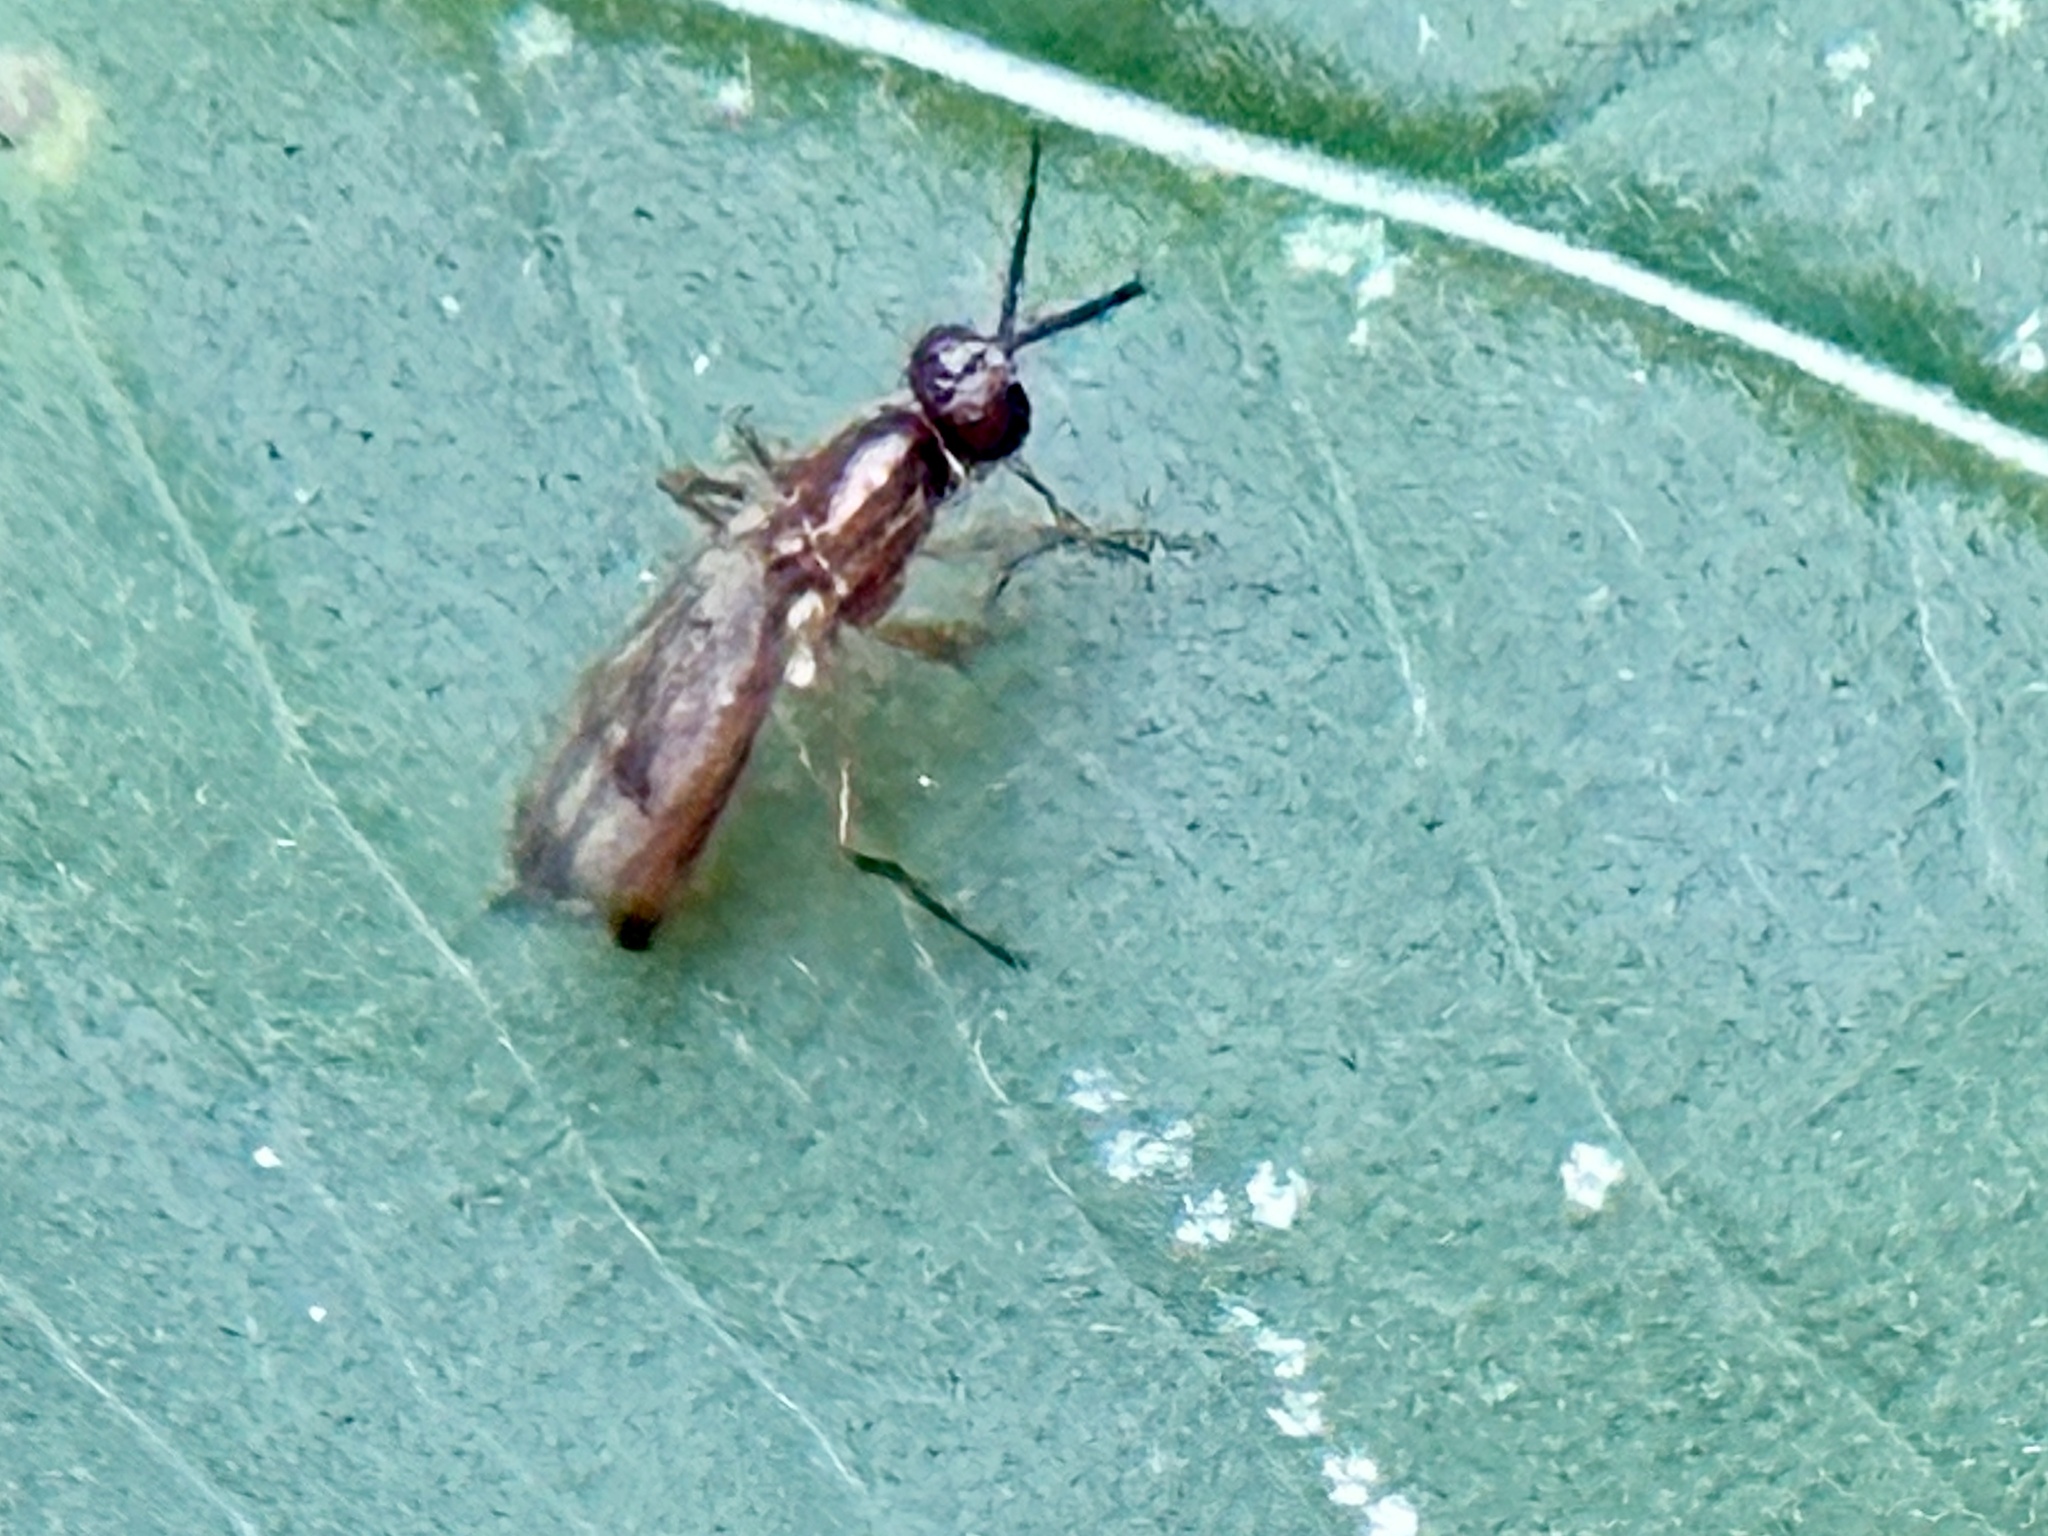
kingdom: Animalia
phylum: Arthropoda
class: Insecta
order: Diptera
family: Psilidae
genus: Loxocera
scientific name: Loxocera cylindrica
